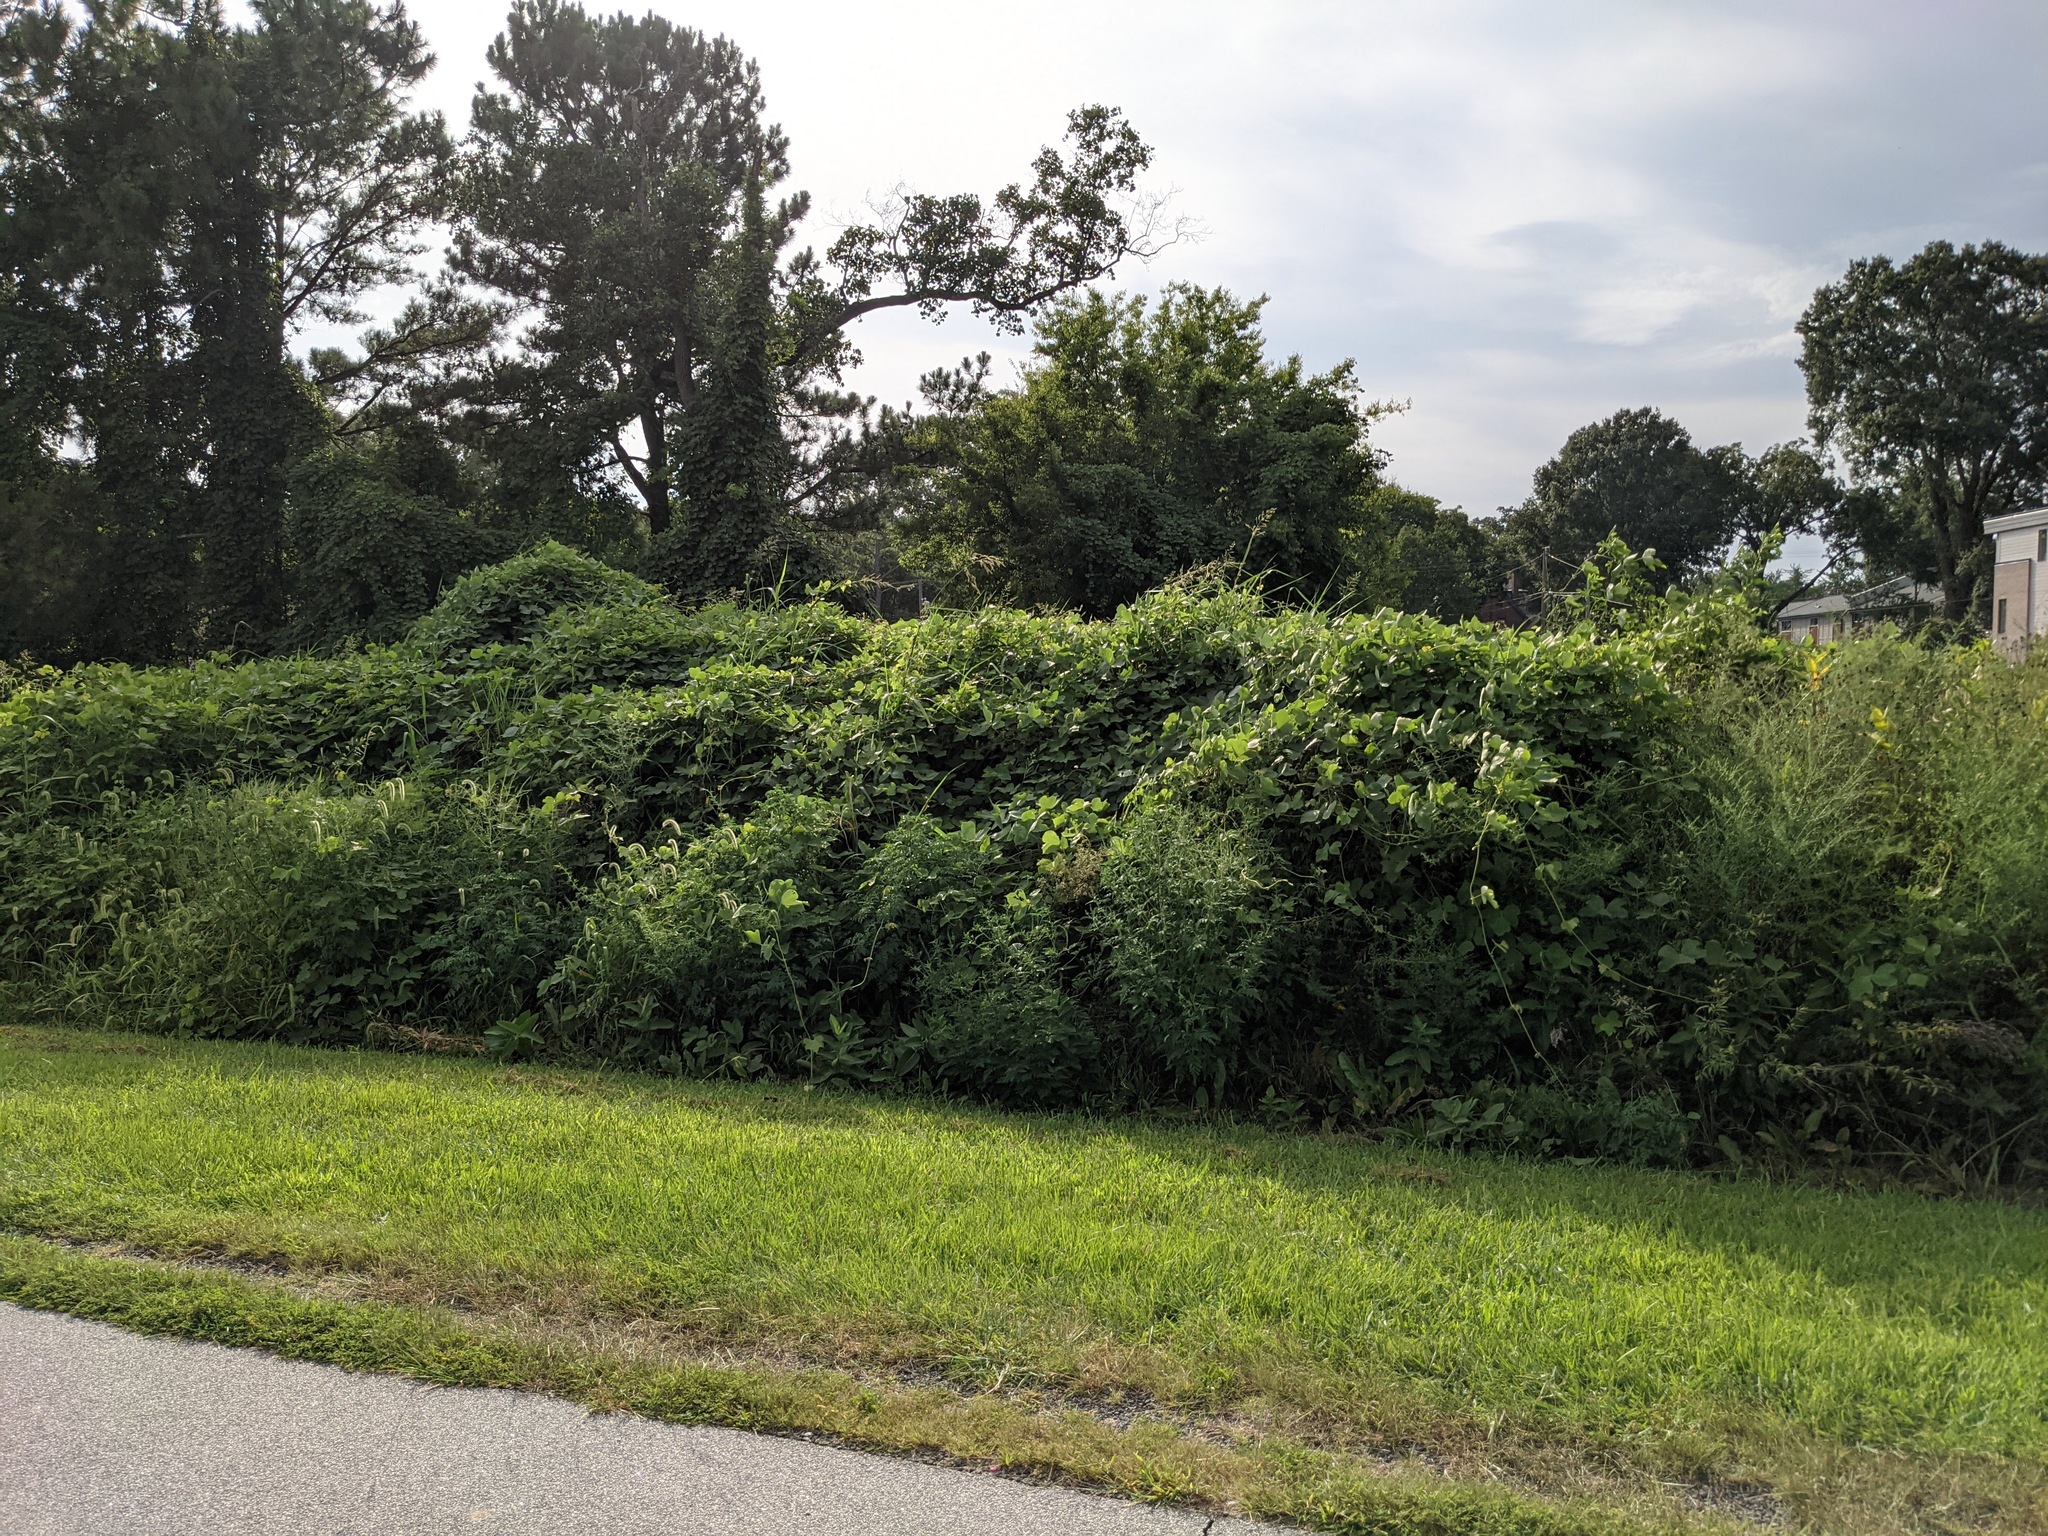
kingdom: Plantae
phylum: Tracheophyta
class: Magnoliopsida
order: Fabales
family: Fabaceae
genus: Pueraria
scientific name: Pueraria montana
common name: Kudzu
